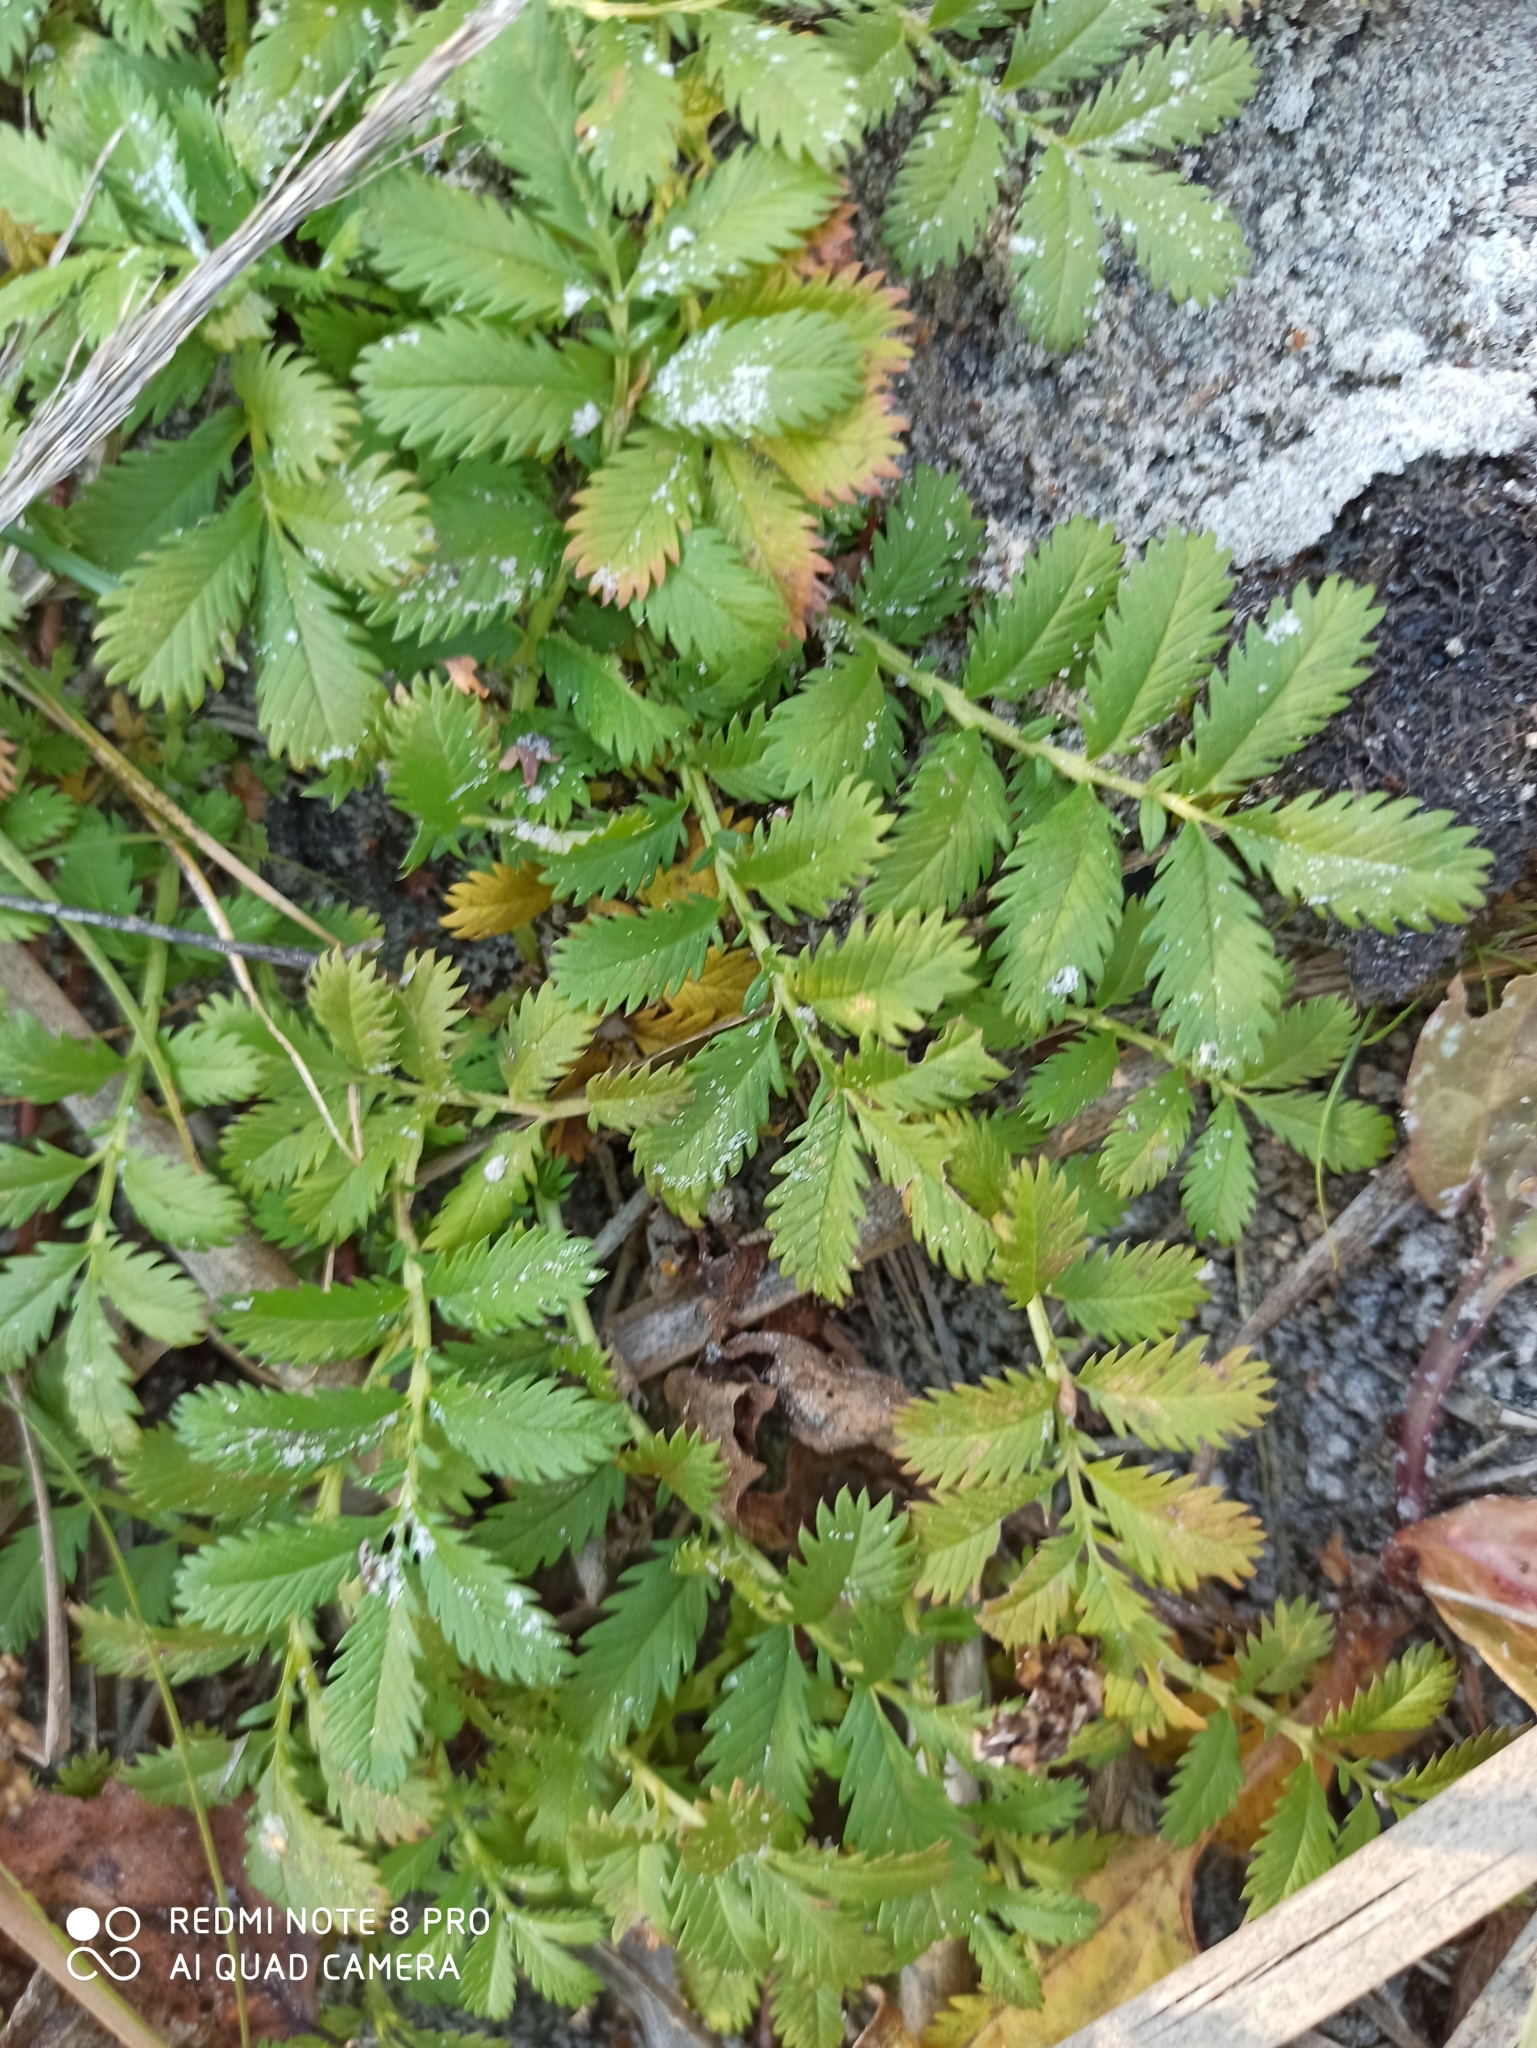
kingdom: Plantae
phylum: Tracheophyta
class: Magnoliopsida
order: Rosales
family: Rosaceae
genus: Argentina
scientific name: Argentina anserina
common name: Common silverweed
